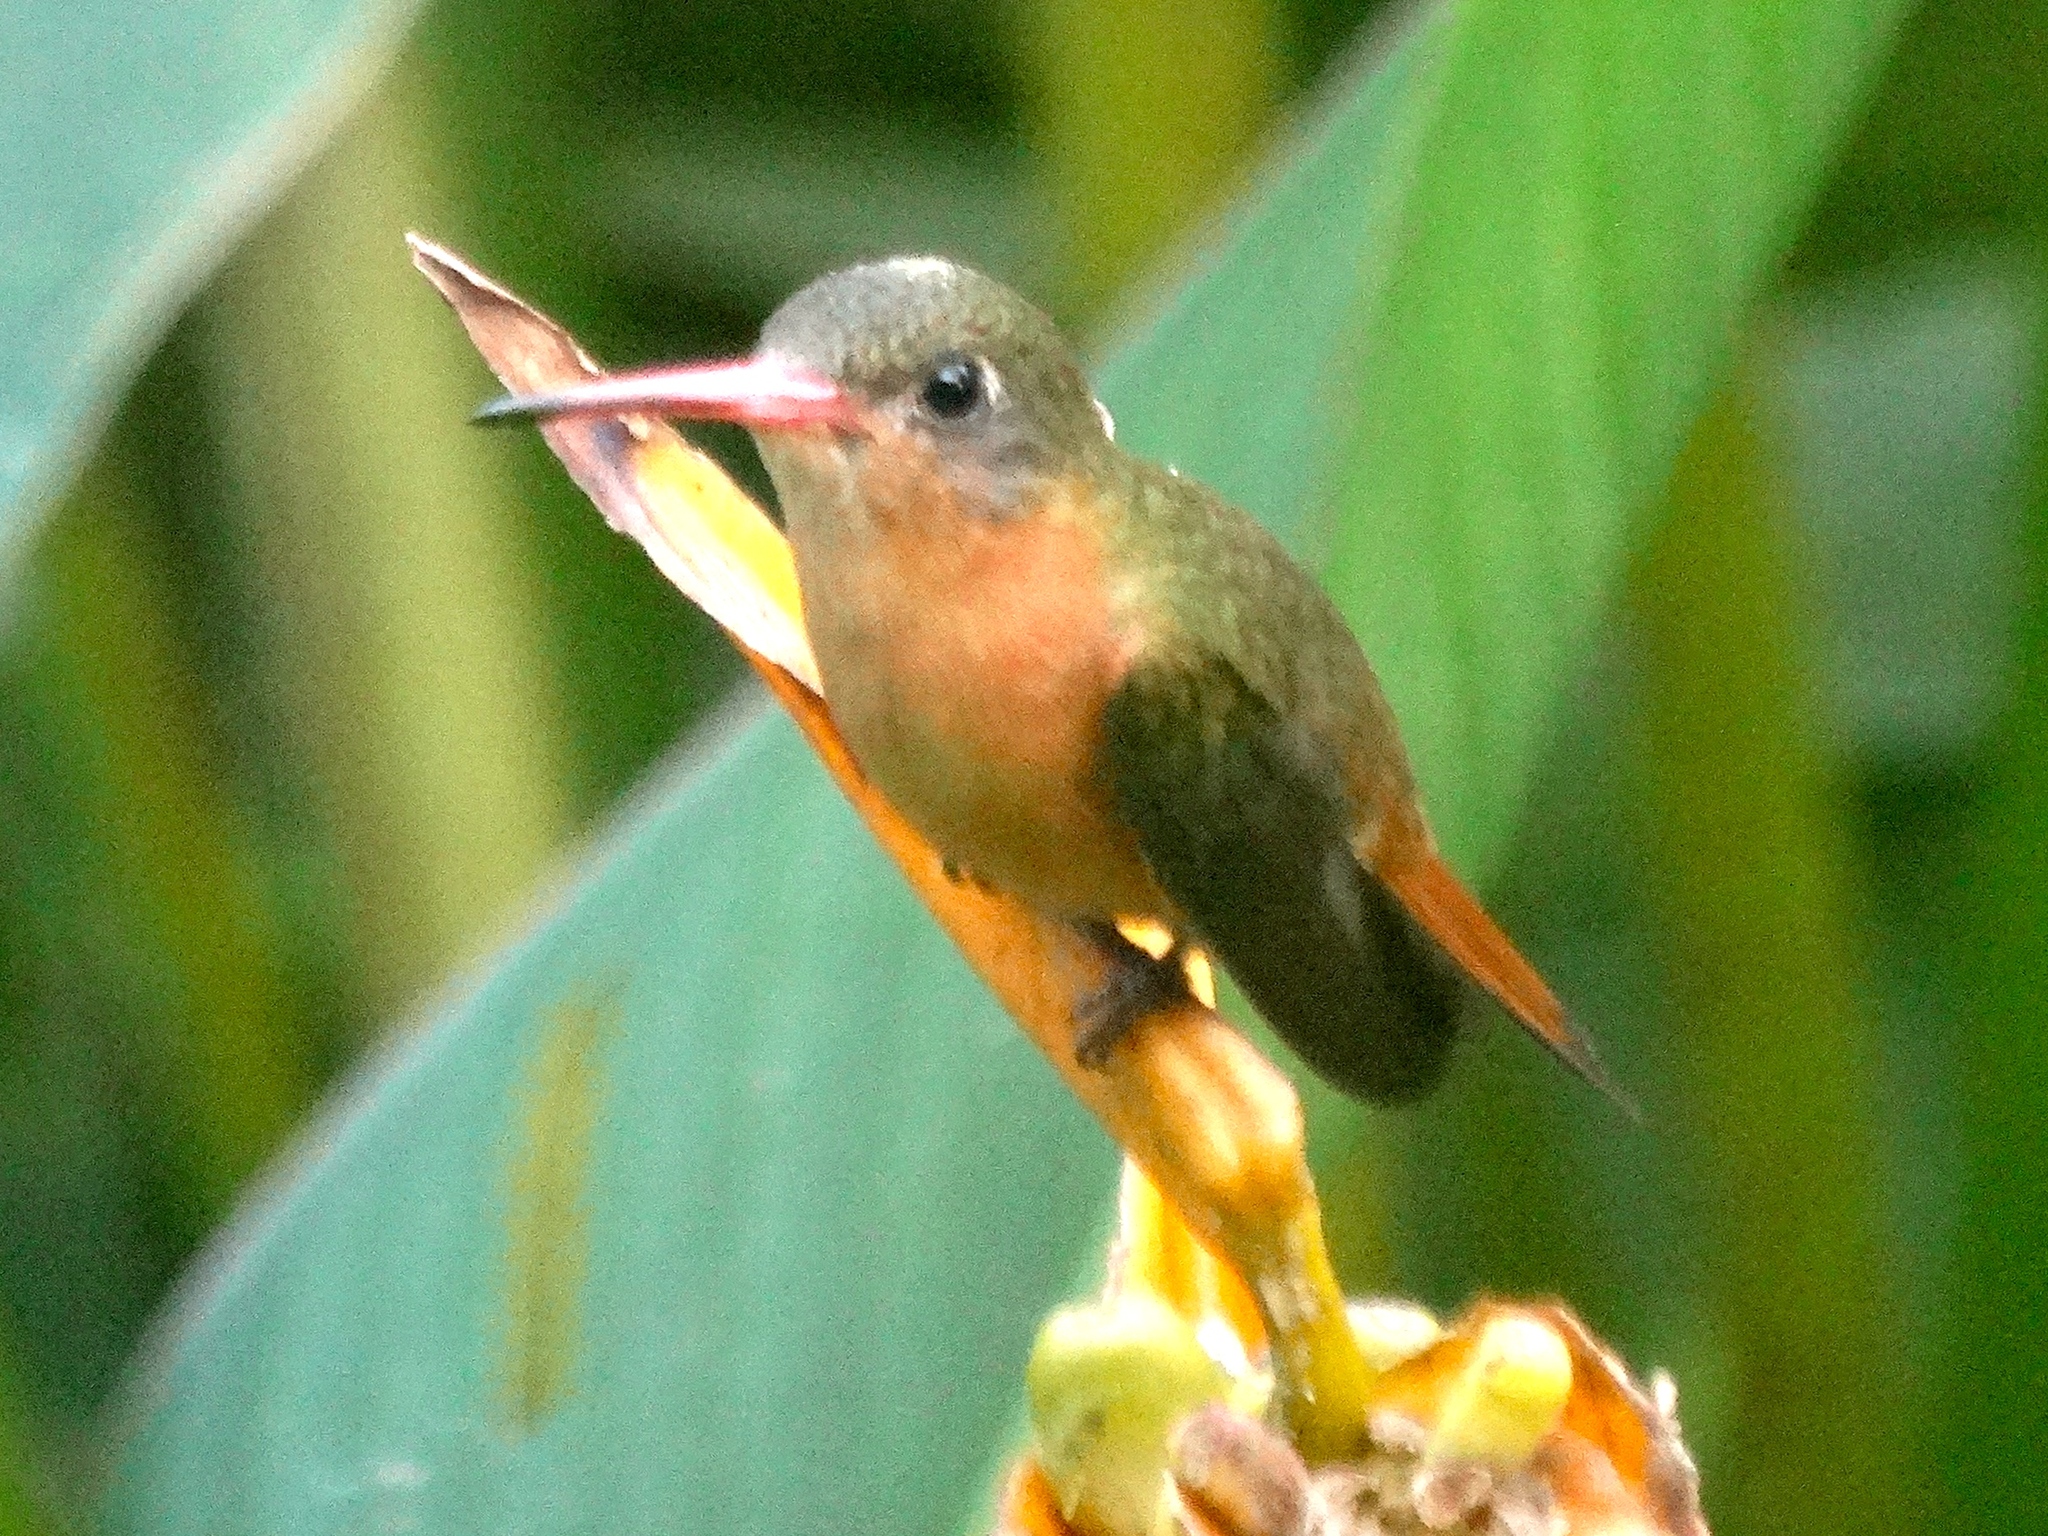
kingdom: Animalia
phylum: Chordata
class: Aves
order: Apodiformes
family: Trochilidae
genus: Amazilia
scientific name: Amazilia rutila
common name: Cinnamon hummingbird
